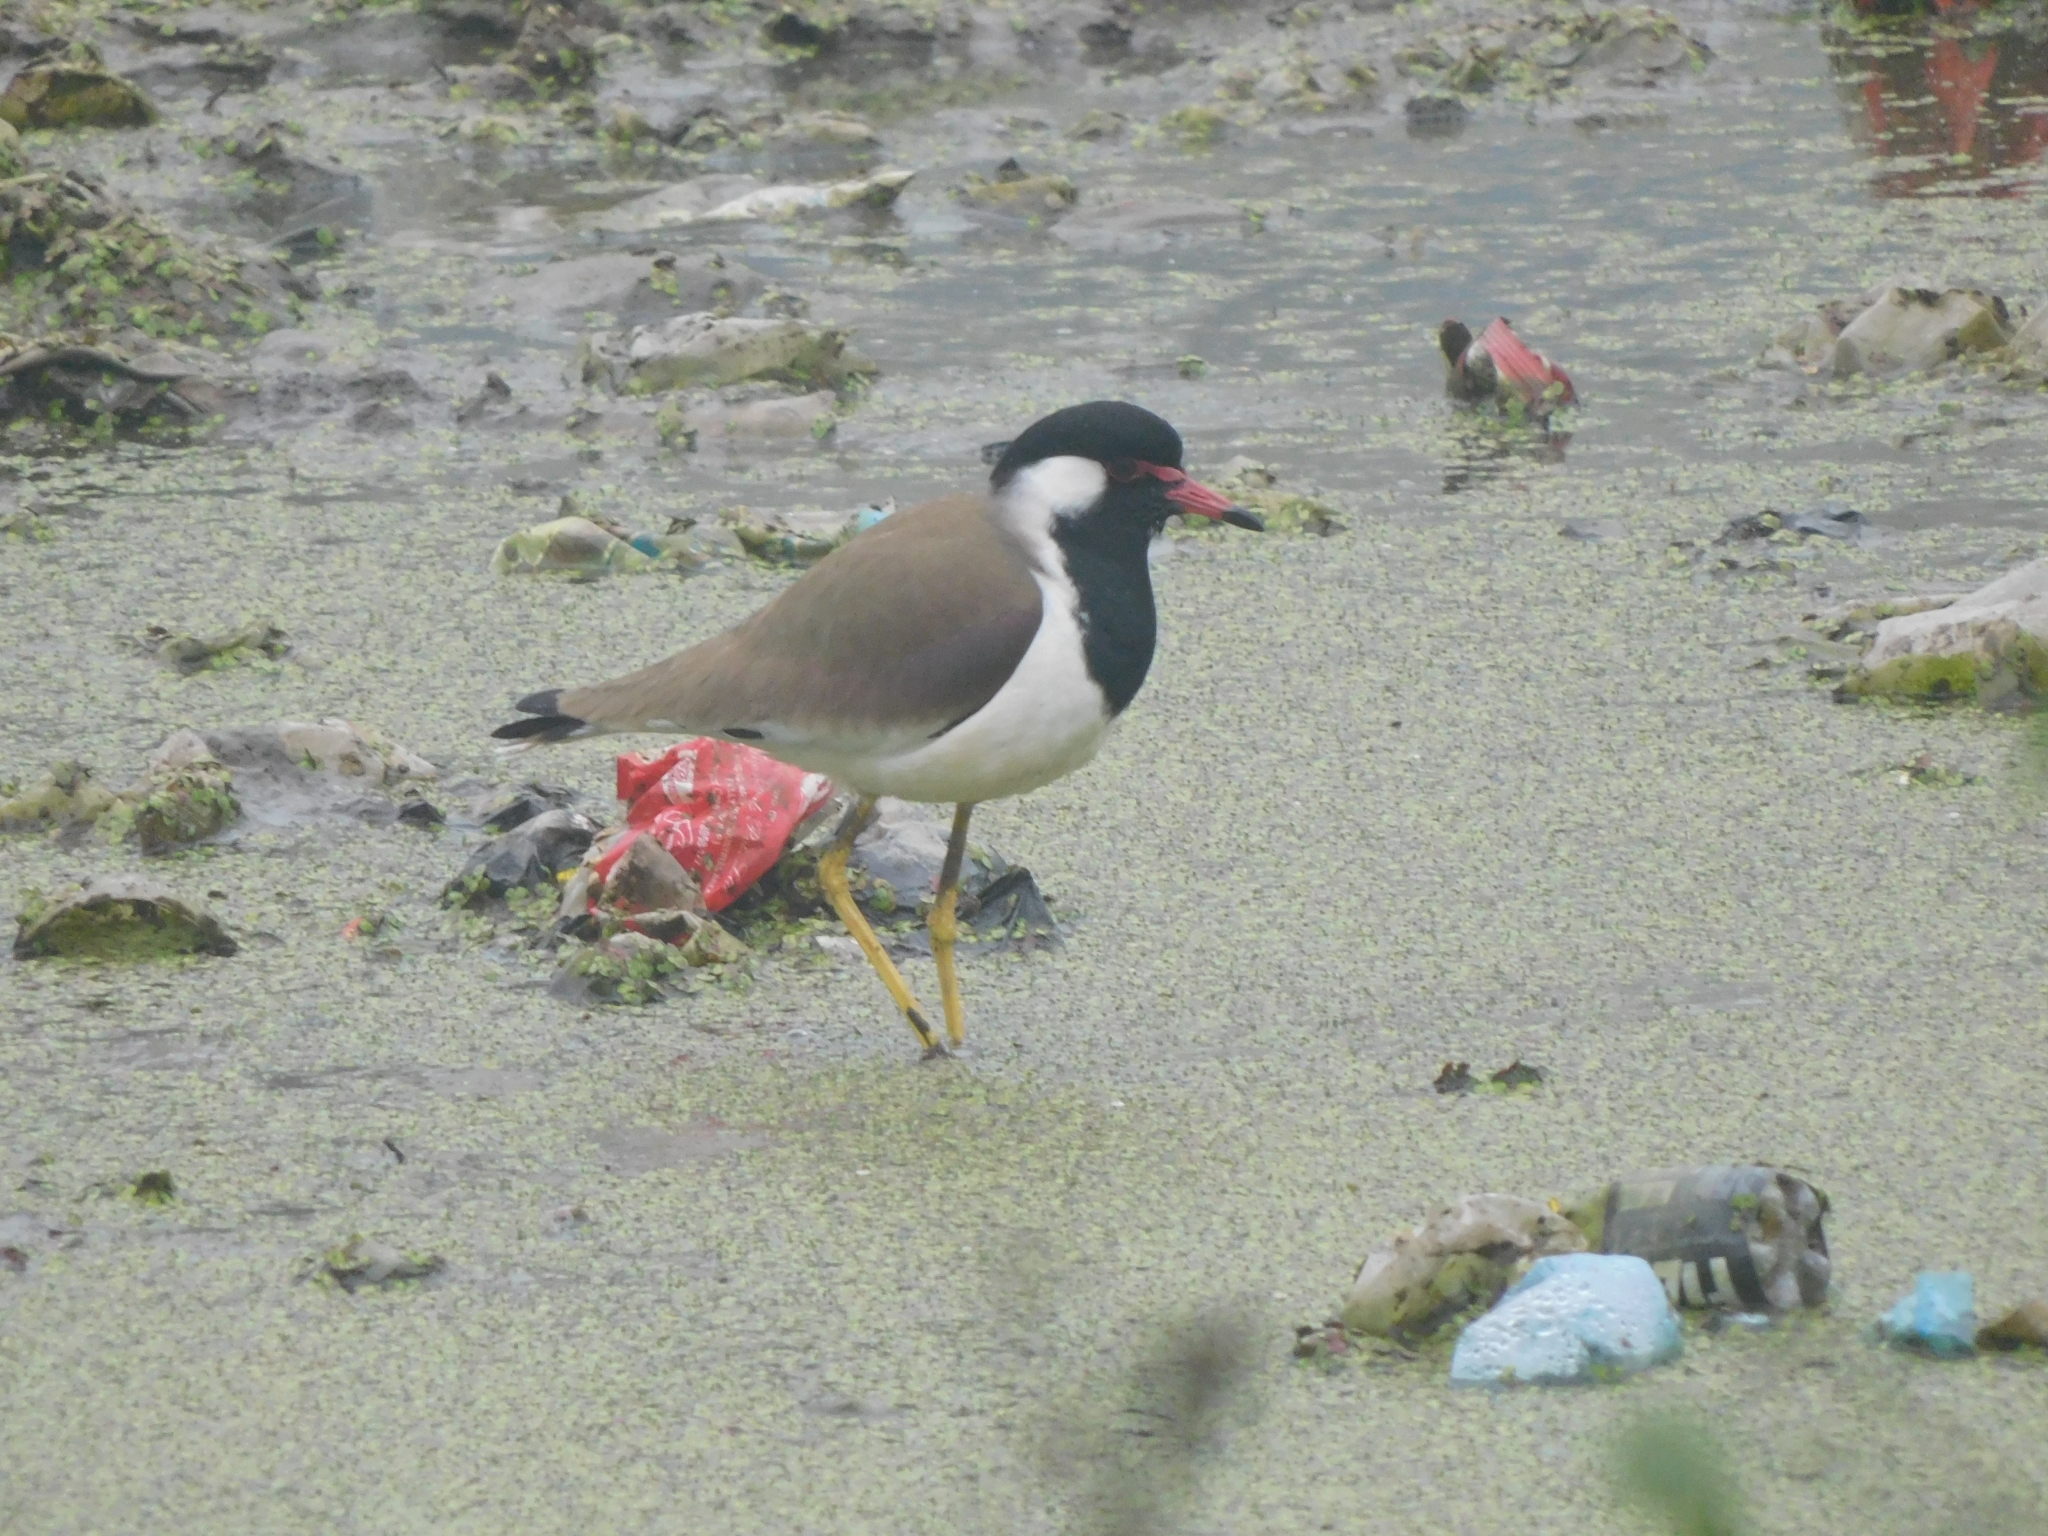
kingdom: Animalia
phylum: Chordata
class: Aves
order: Charadriiformes
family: Charadriidae
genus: Vanellus
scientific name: Vanellus indicus
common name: Red-wattled lapwing
